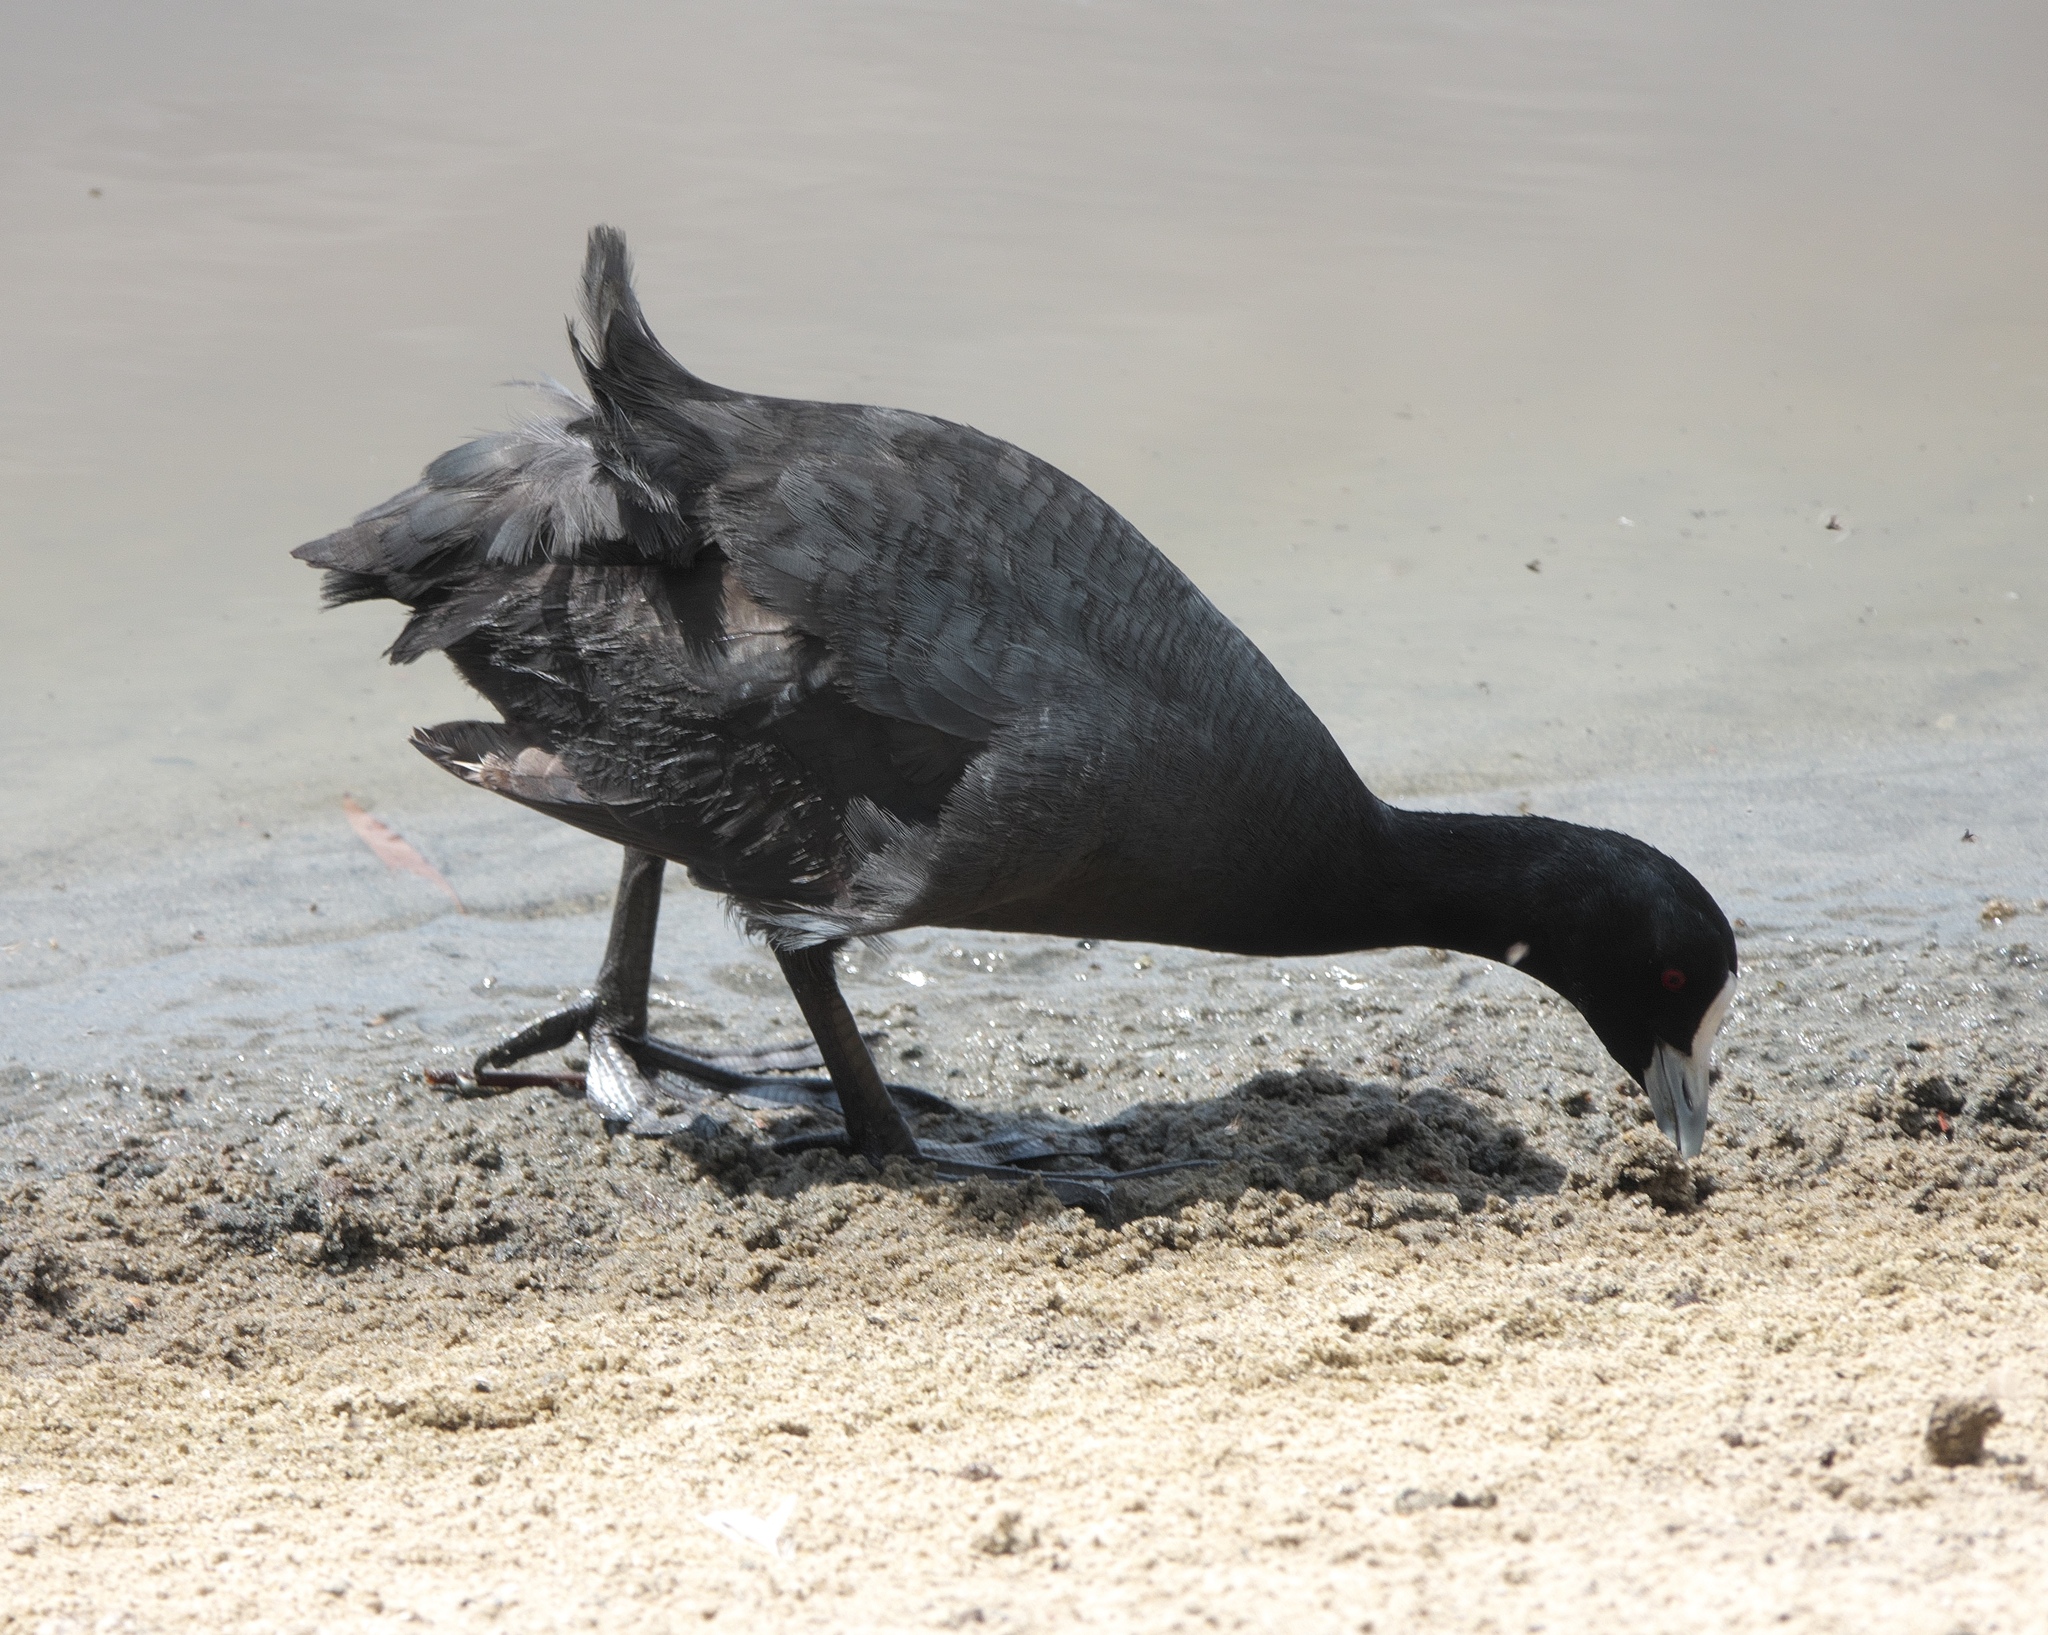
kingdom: Animalia
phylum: Chordata
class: Aves
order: Gruiformes
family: Rallidae
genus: Fulica
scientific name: Fulica atra
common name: Eurasian coot
